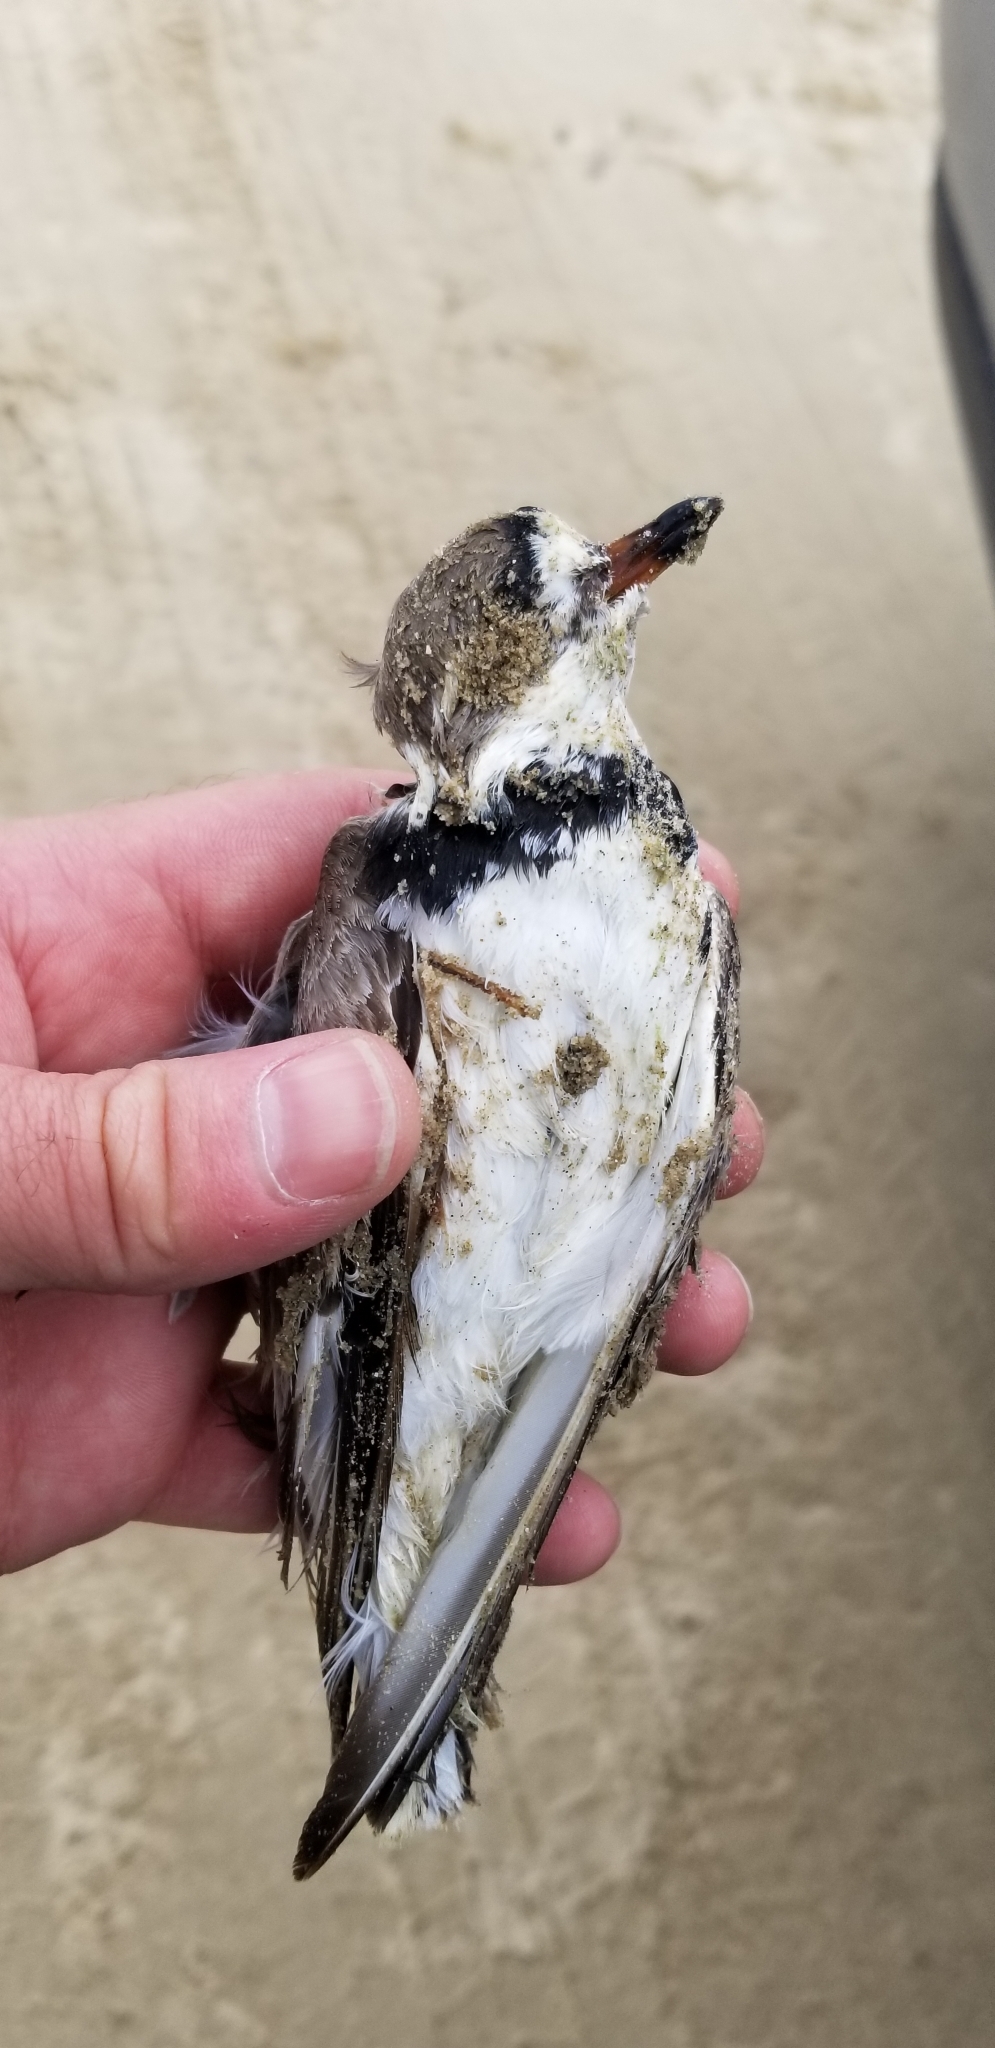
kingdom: Animalia
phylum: Chordata
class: Aves
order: Charadriiformes
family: Charadriidae
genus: Charadrius
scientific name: Charadrius semipalmatus
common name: Semipalmated plover
